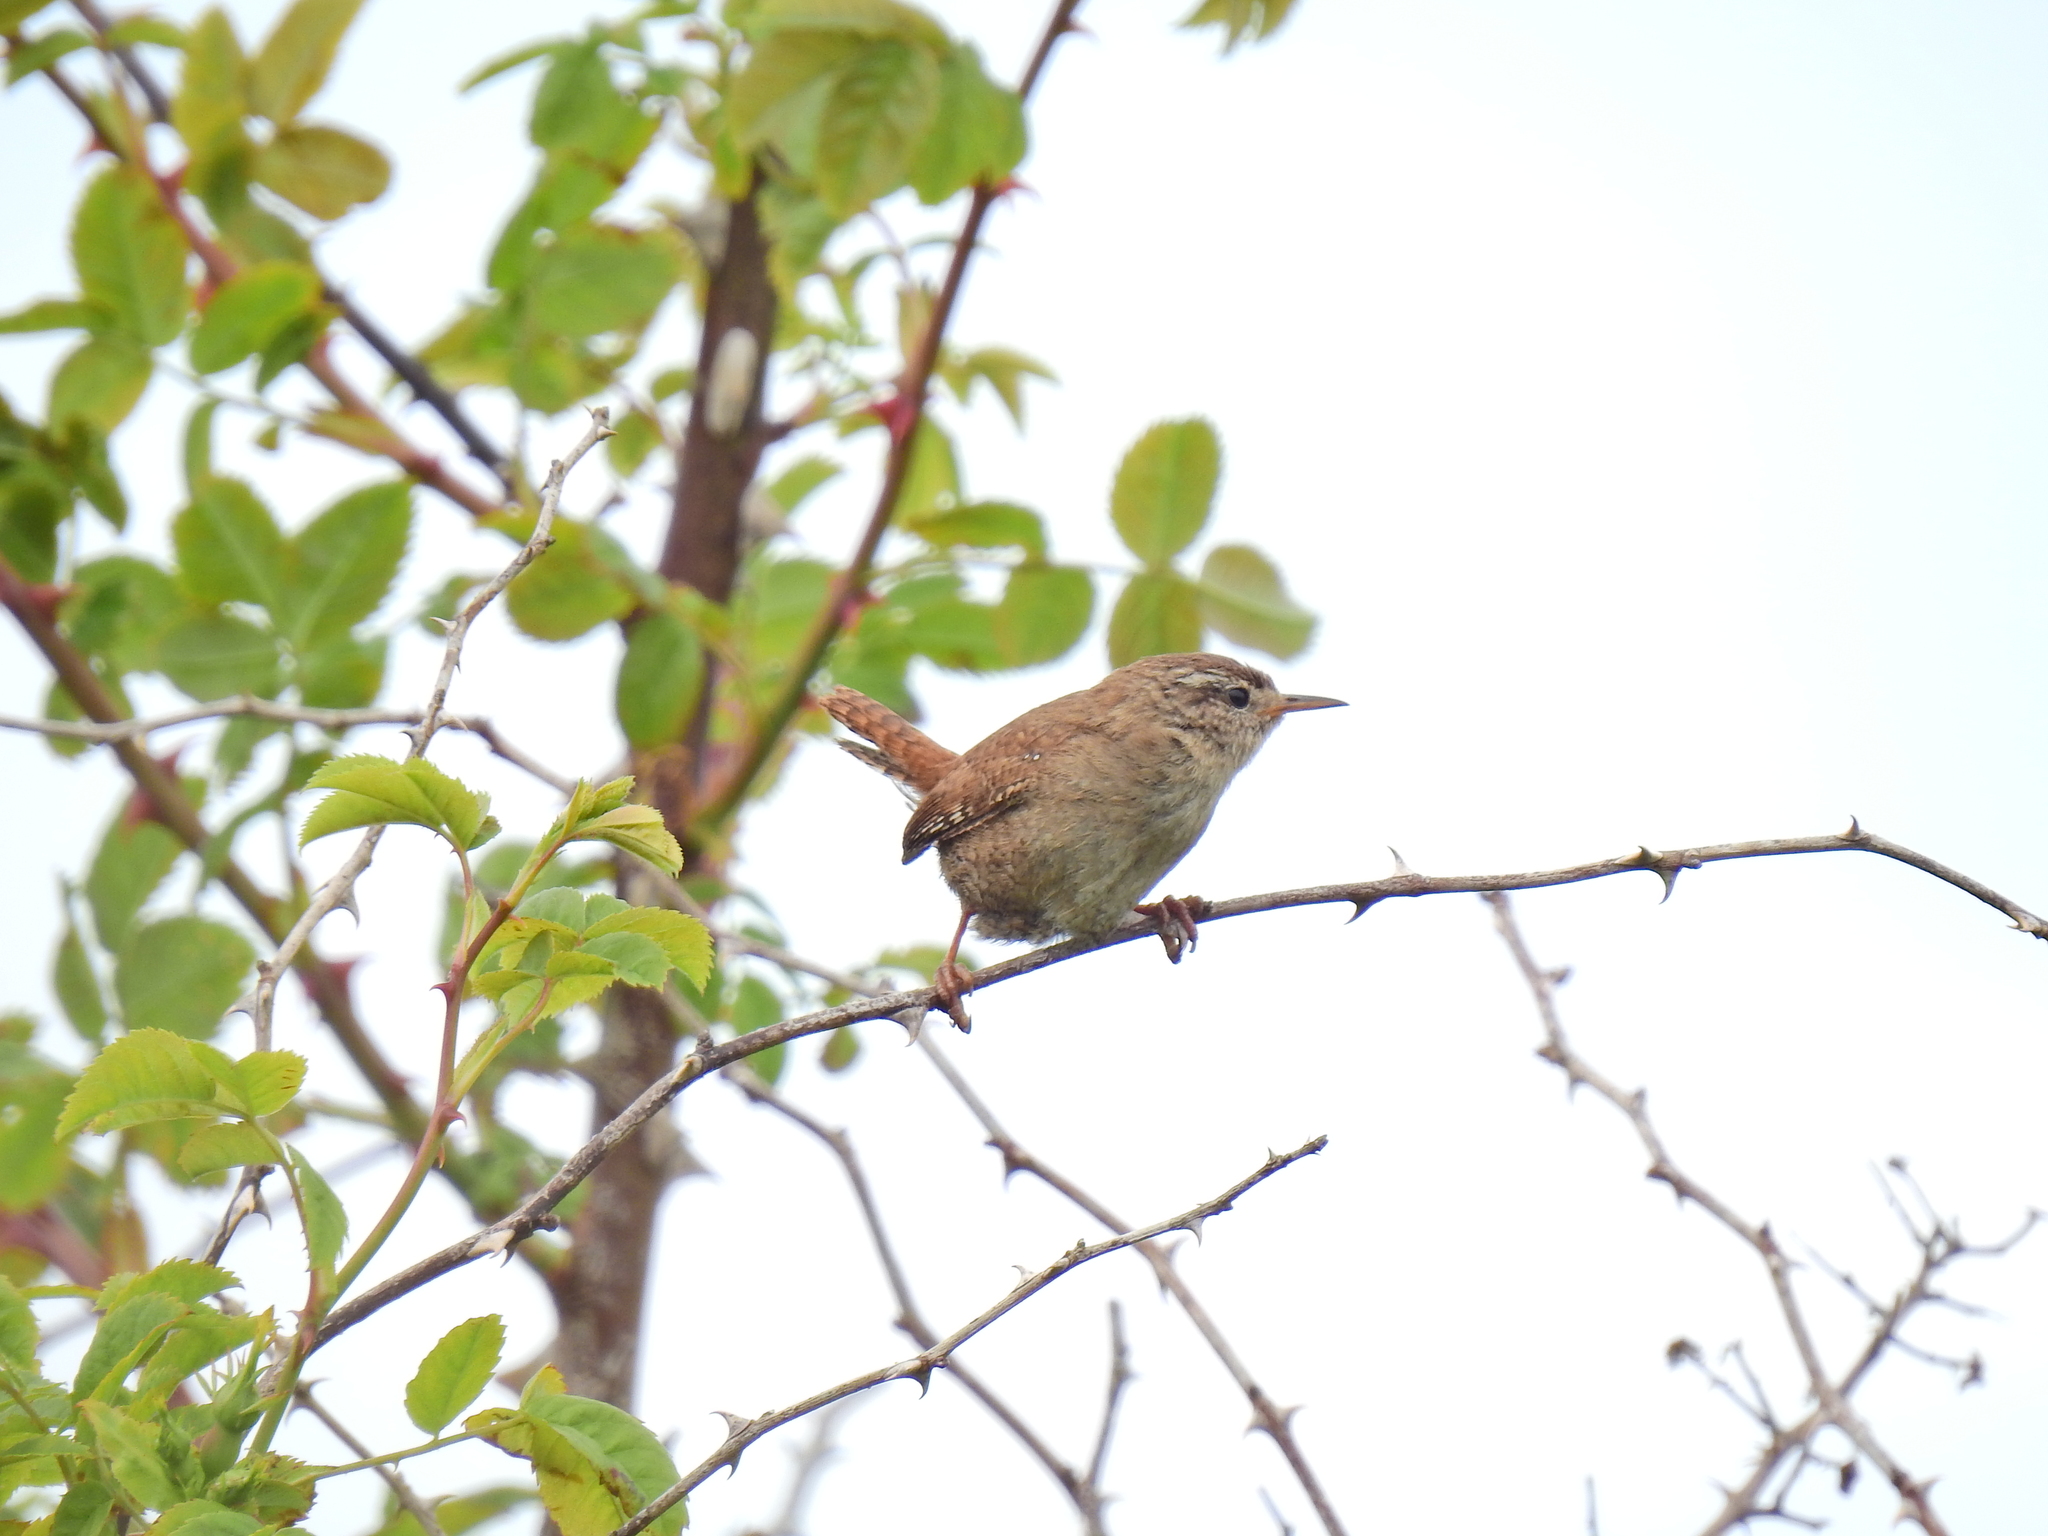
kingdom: Animalia
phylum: Chordata
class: Aves
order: Passeriformes
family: Troglodytidae
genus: Troglodytes
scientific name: Troglodytes troglodytes
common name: Eurasian wren
